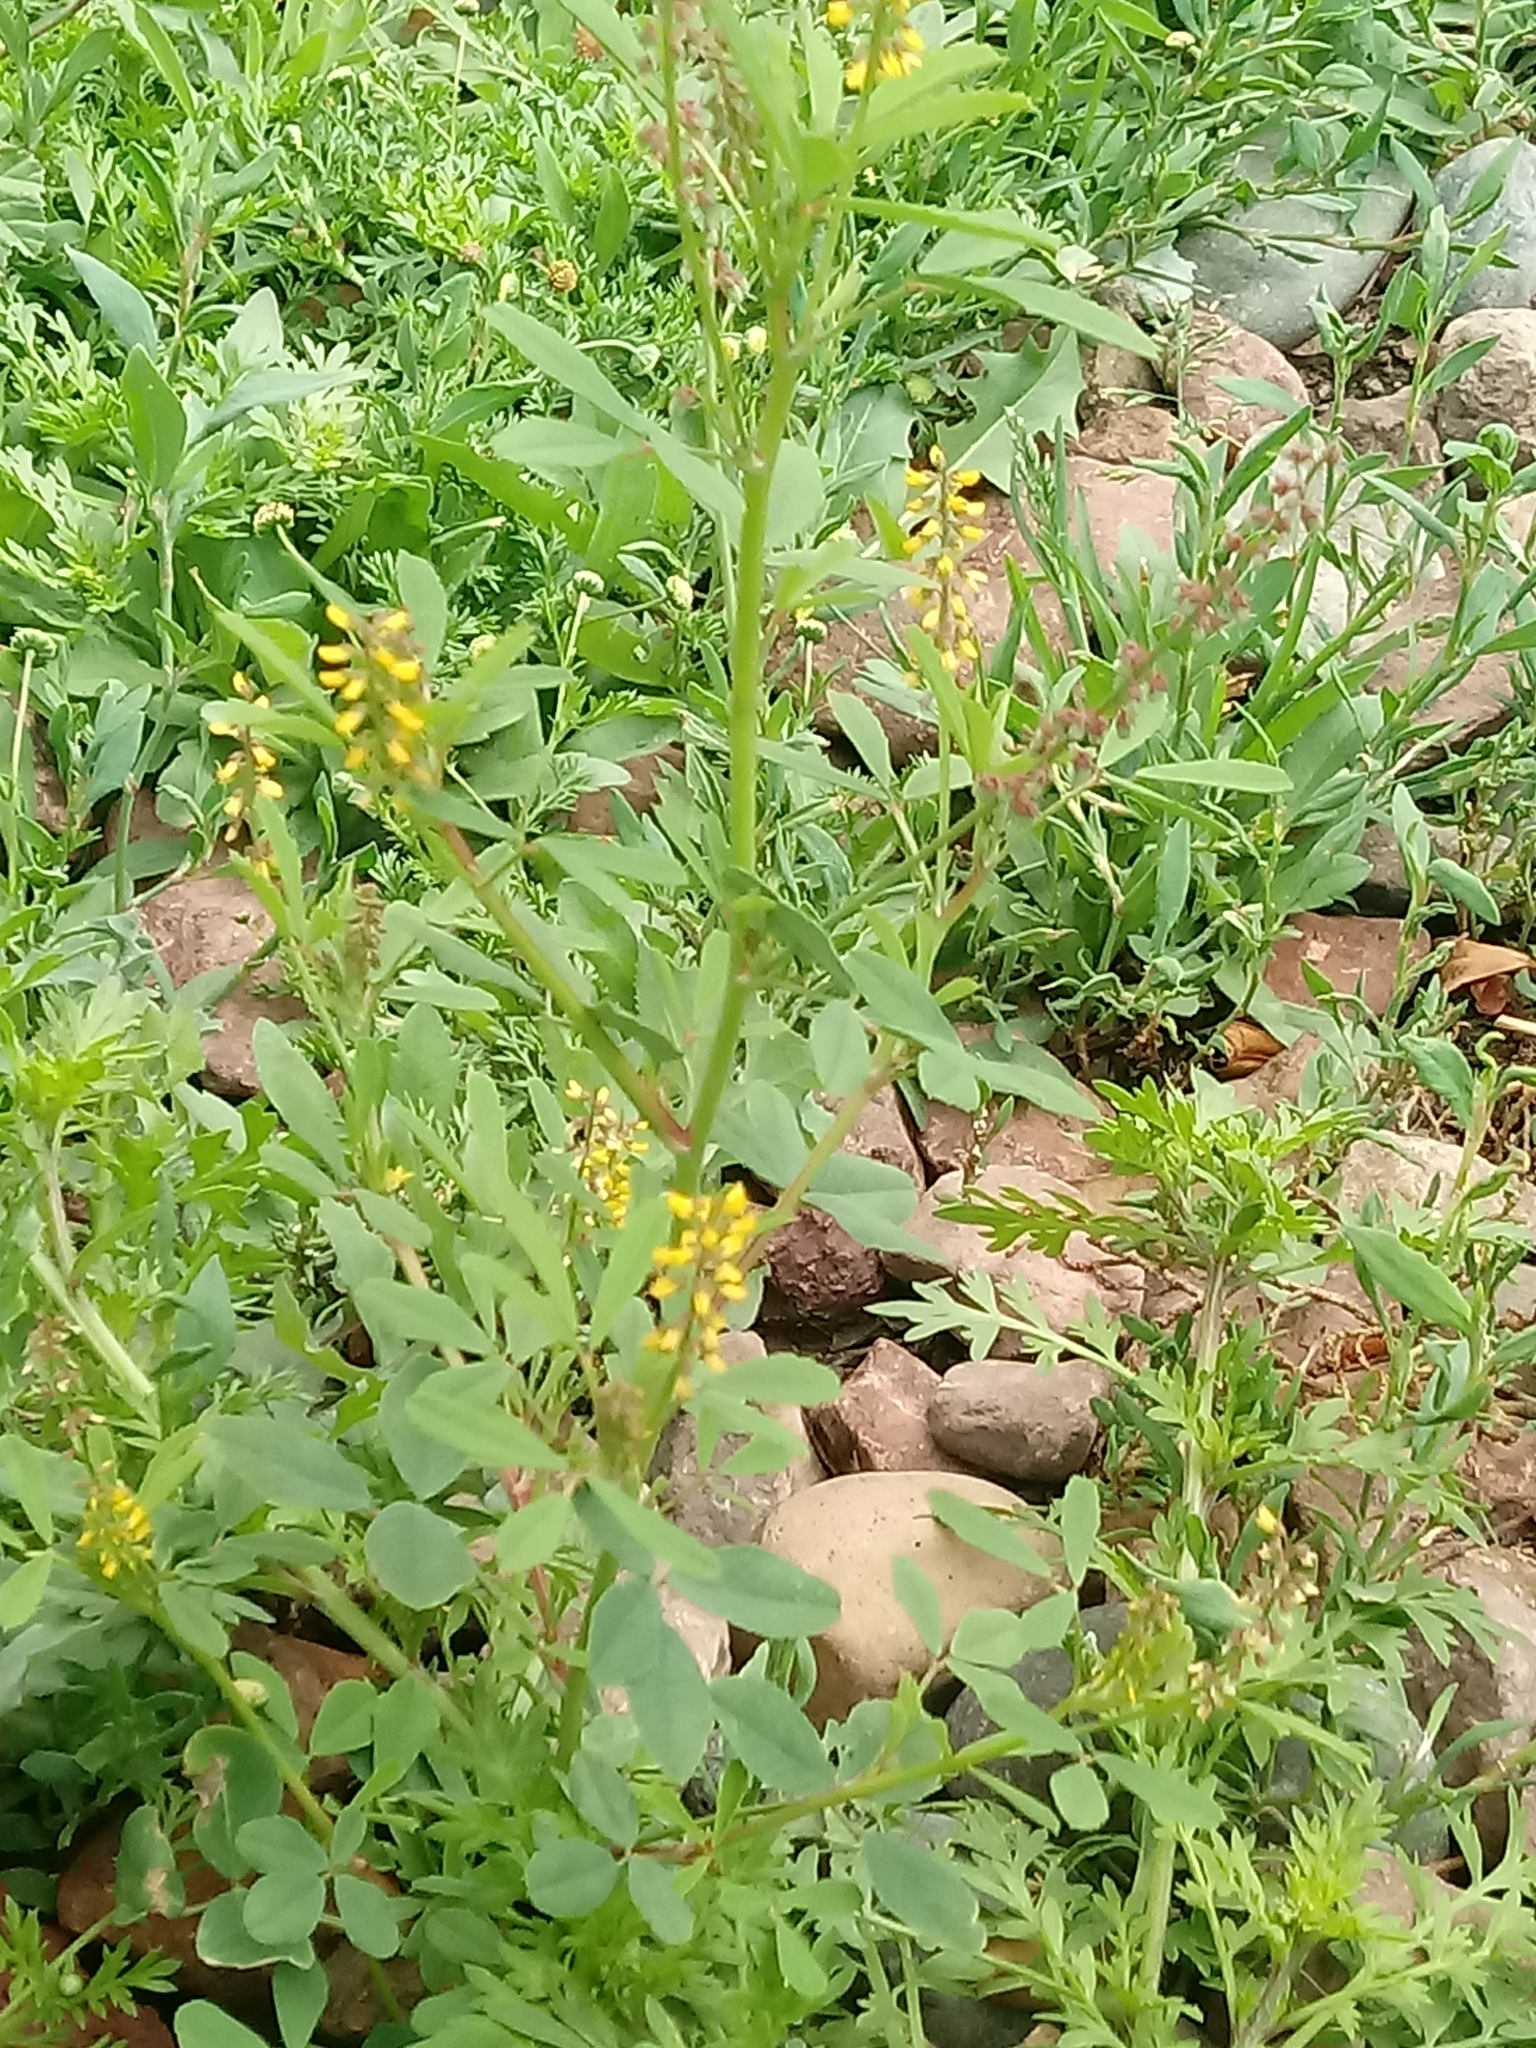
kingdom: Plantae
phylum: Tracheophyta
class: Magnoliopsida
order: Fabales
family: Fabaceae
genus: Melilotus
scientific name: Melilotus indicus
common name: Small melilot
